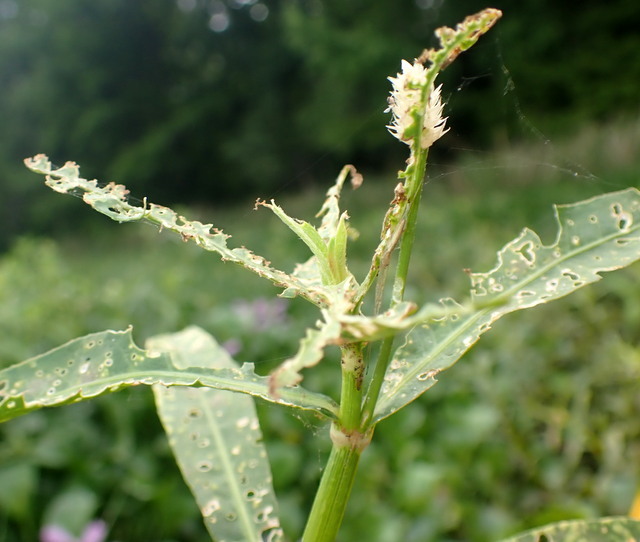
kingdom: Animalia
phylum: Arthropoda
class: Insecta
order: Coleoptera
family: Chrysomelidae
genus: Agasicles
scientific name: Agasicles hygrophila
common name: Alligatorweed flea beetle
